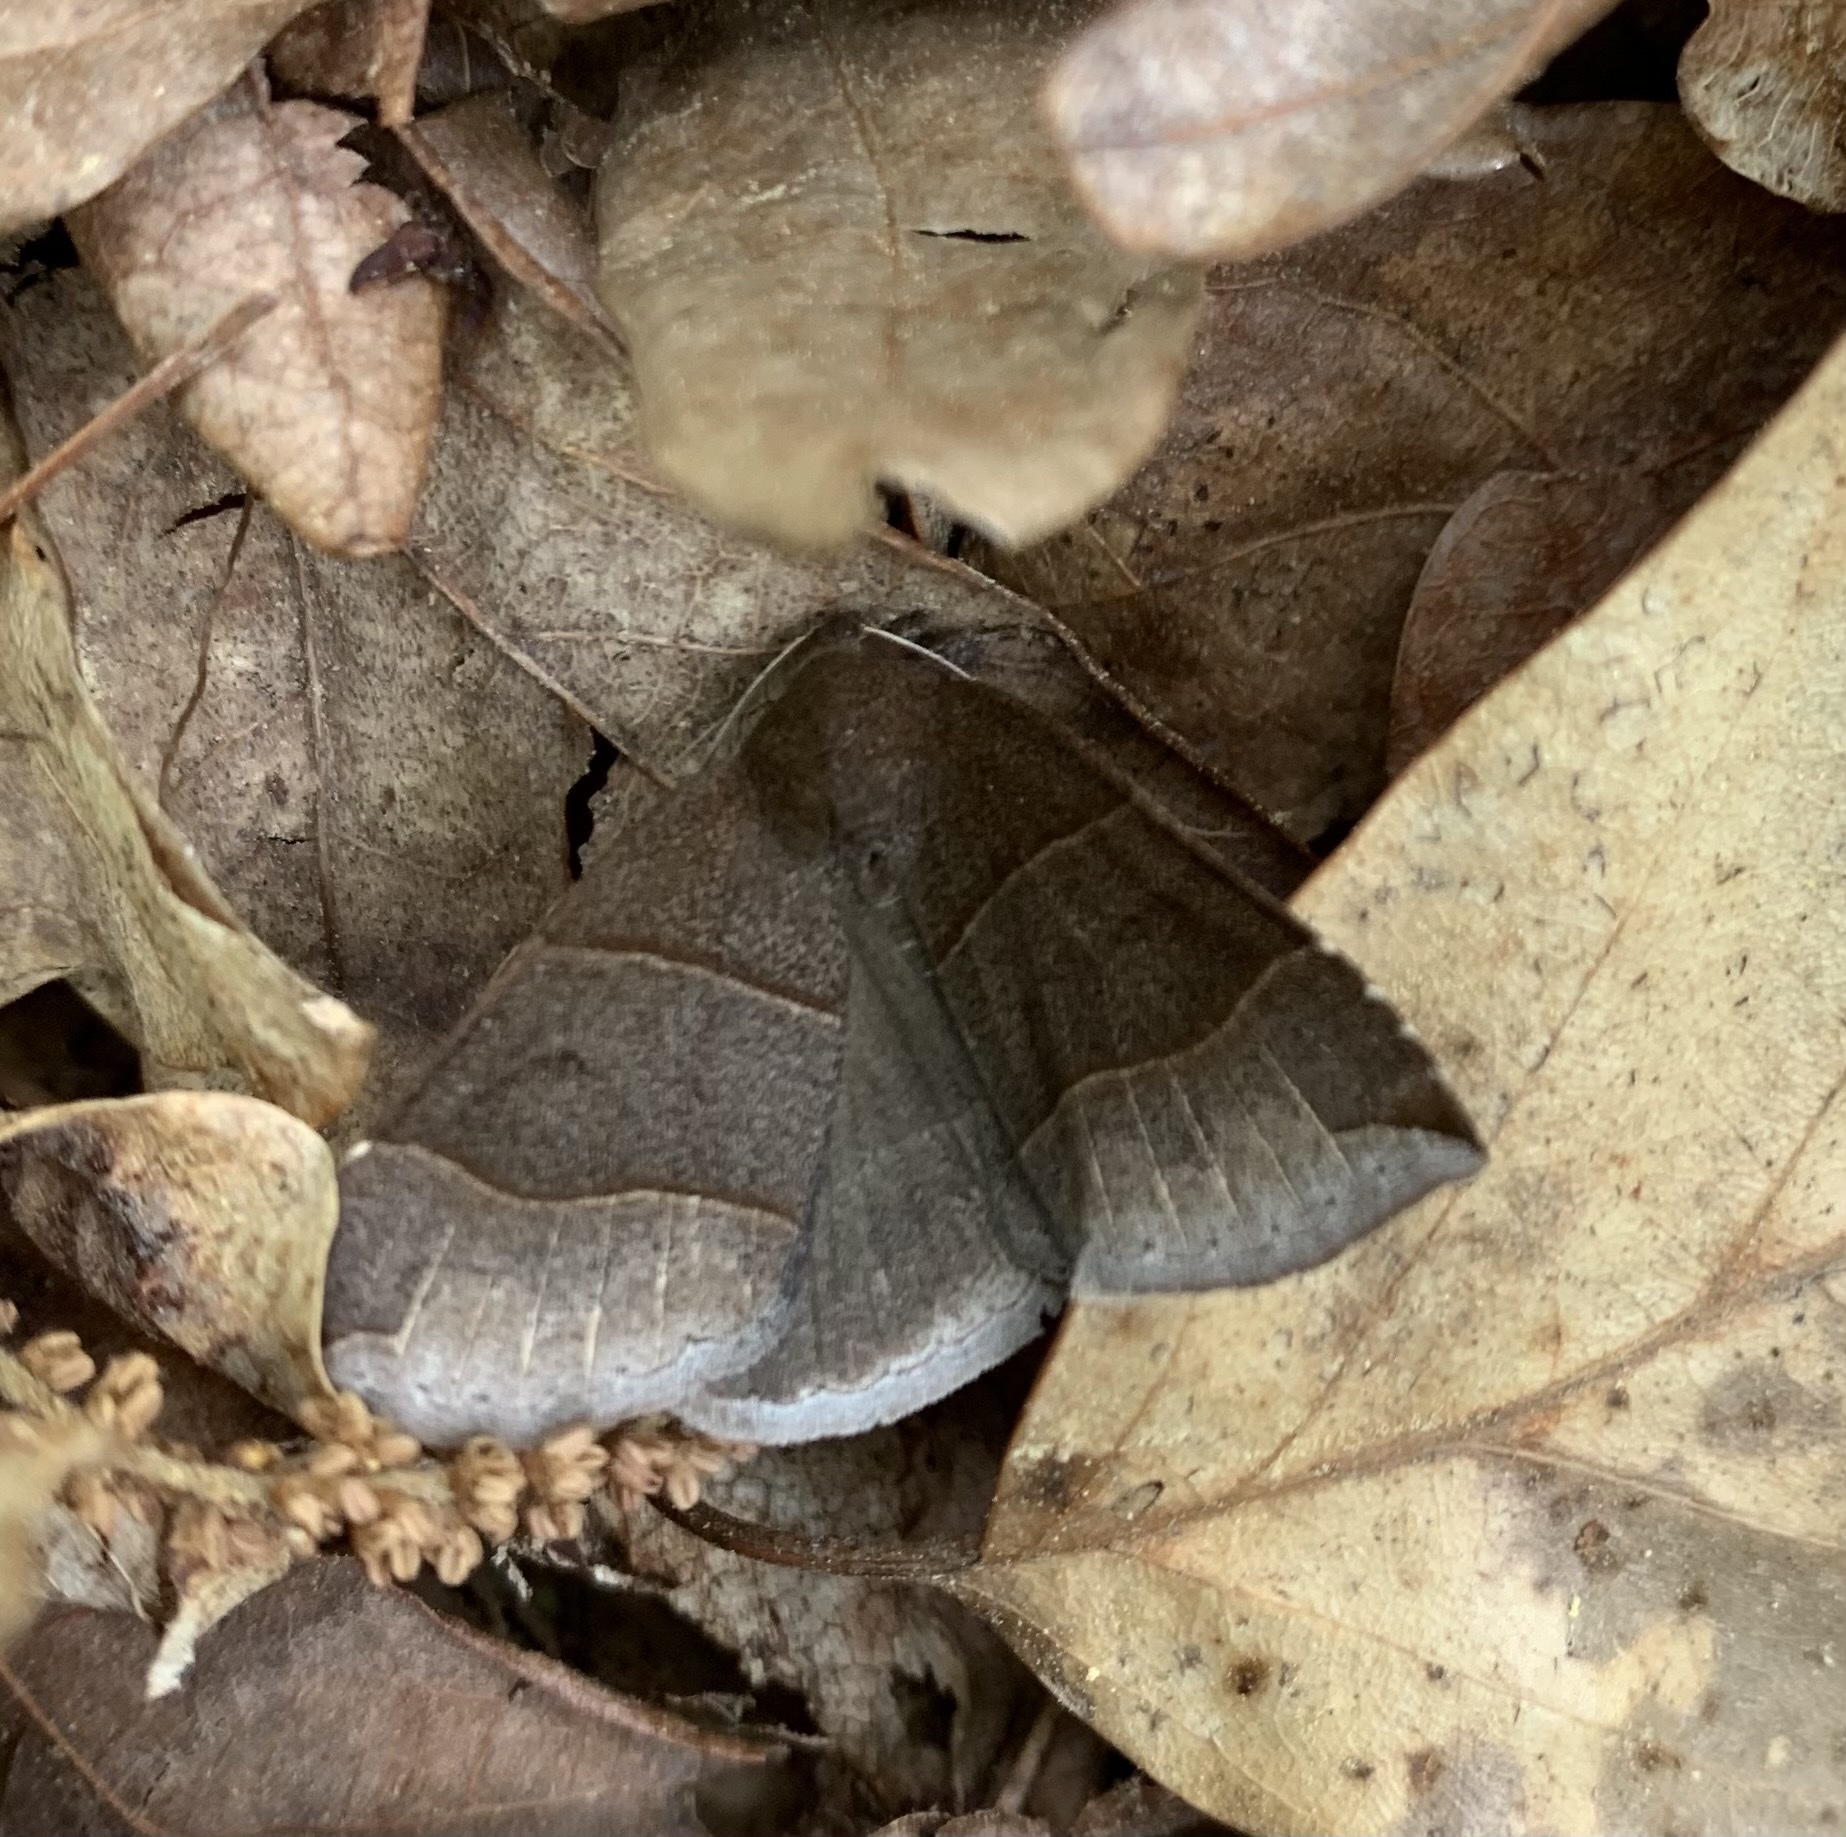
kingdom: Animalia
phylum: Arthropoda
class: Insecta
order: Lepidoptera
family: Erebidae
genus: Parallelia
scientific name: Parallelia bistriaris
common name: Maple looper moth
